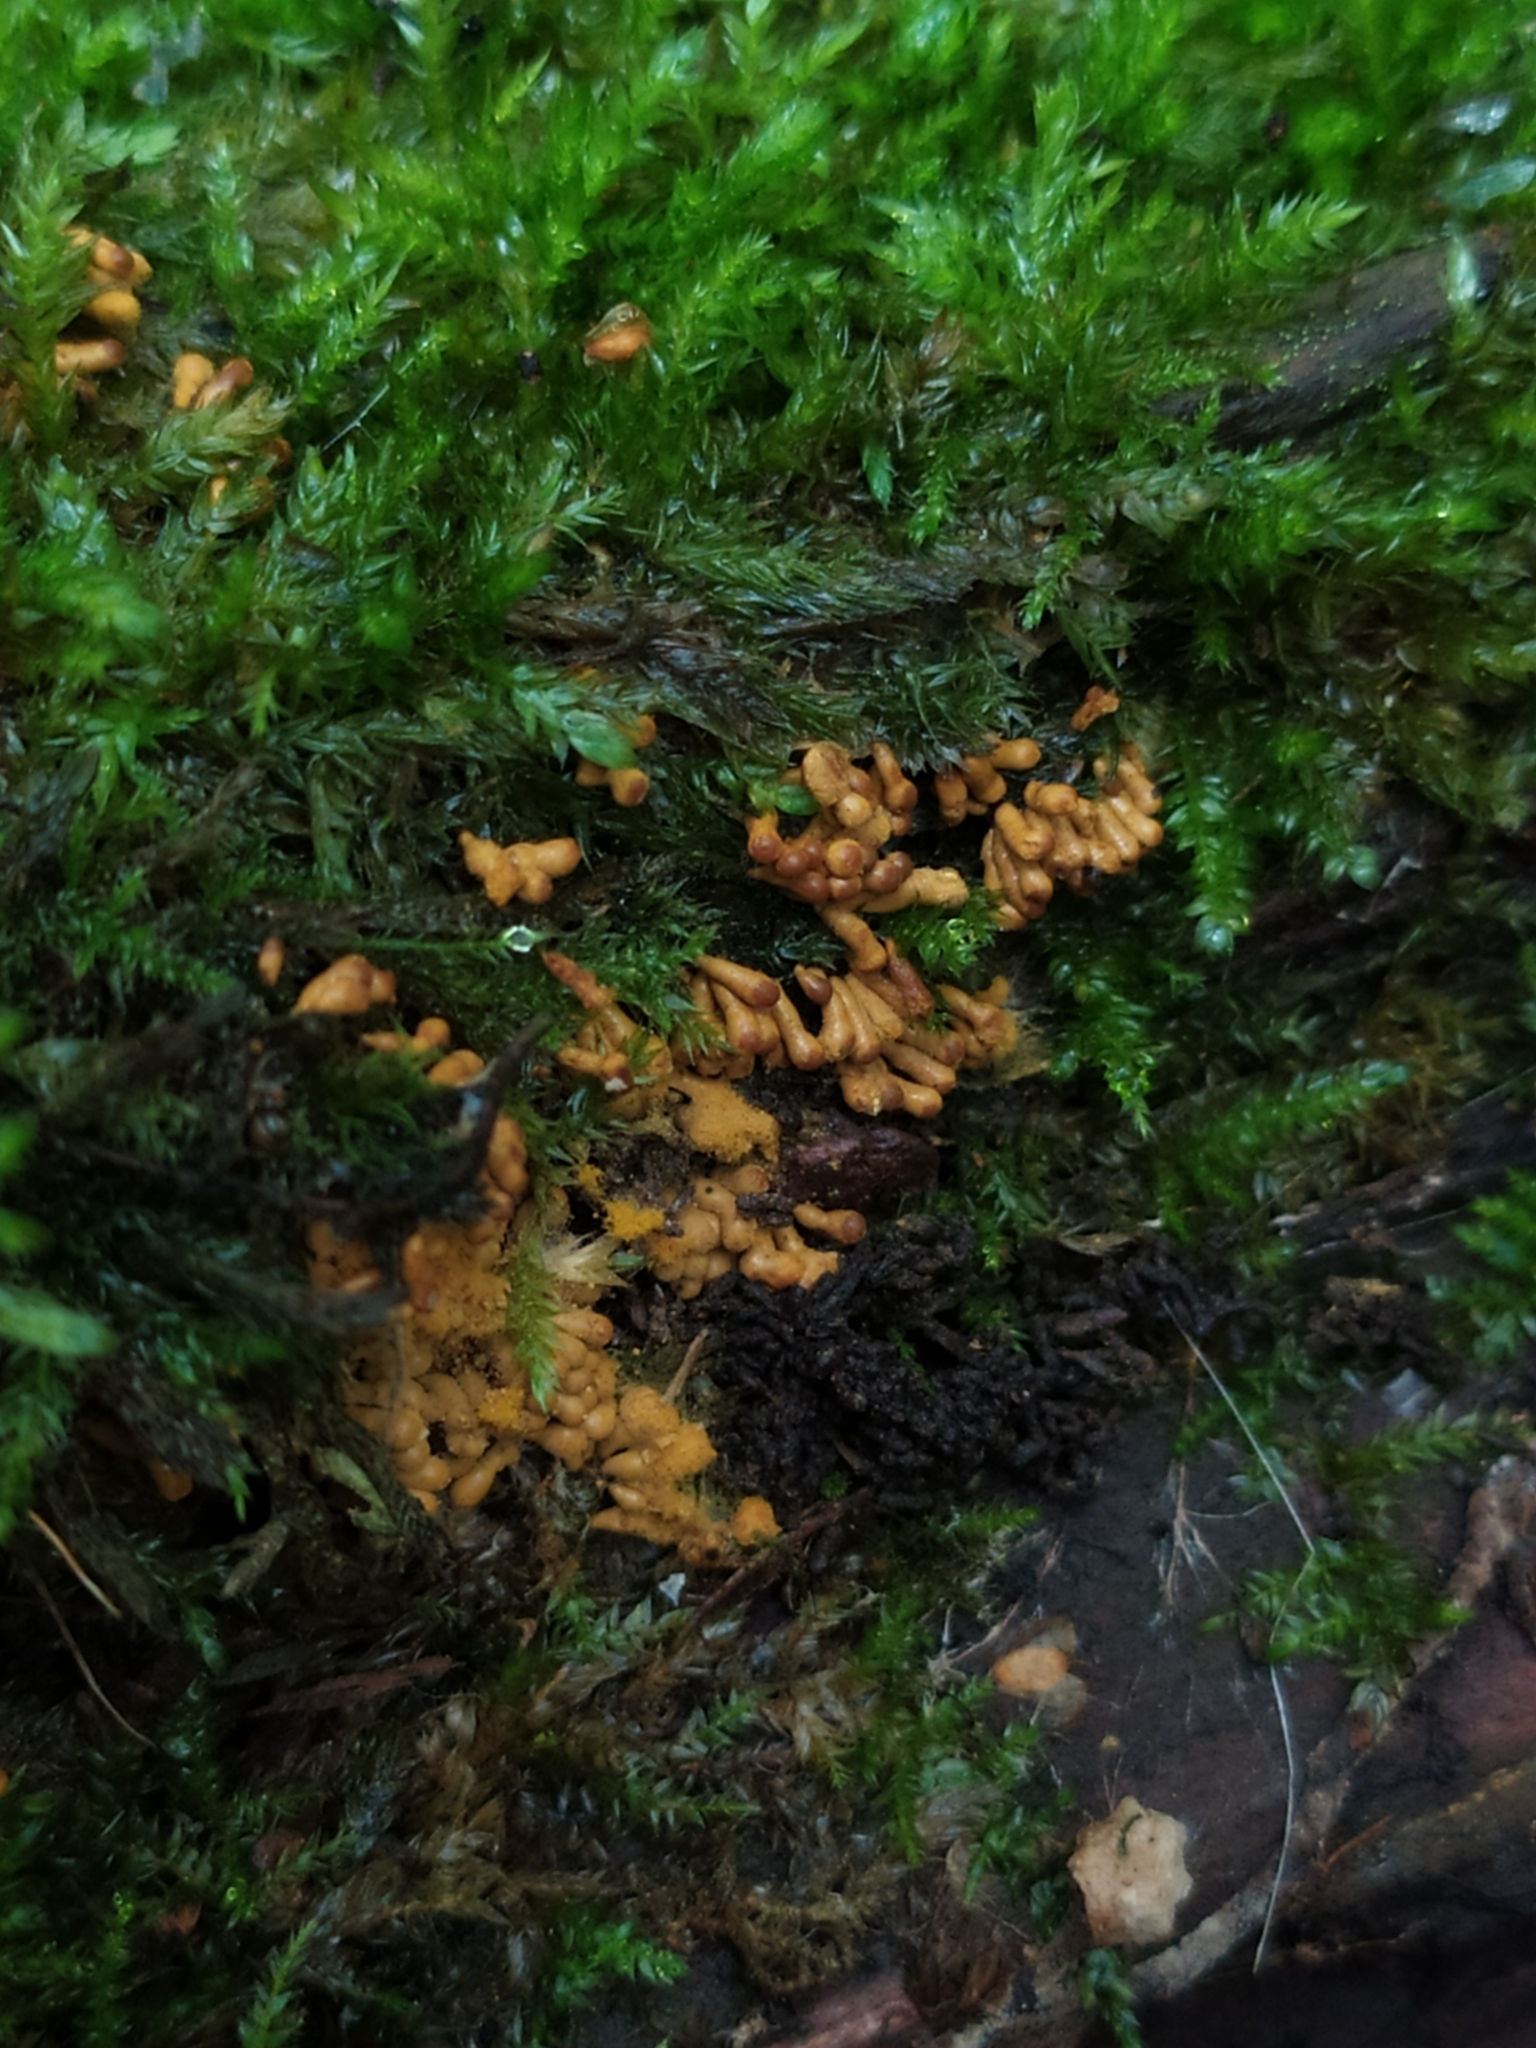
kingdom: Protozoa
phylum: Mycetozoa
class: Myxomycetes
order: Trichiales
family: Trichiaceae
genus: Oligonema
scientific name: Oligonema favogineum
